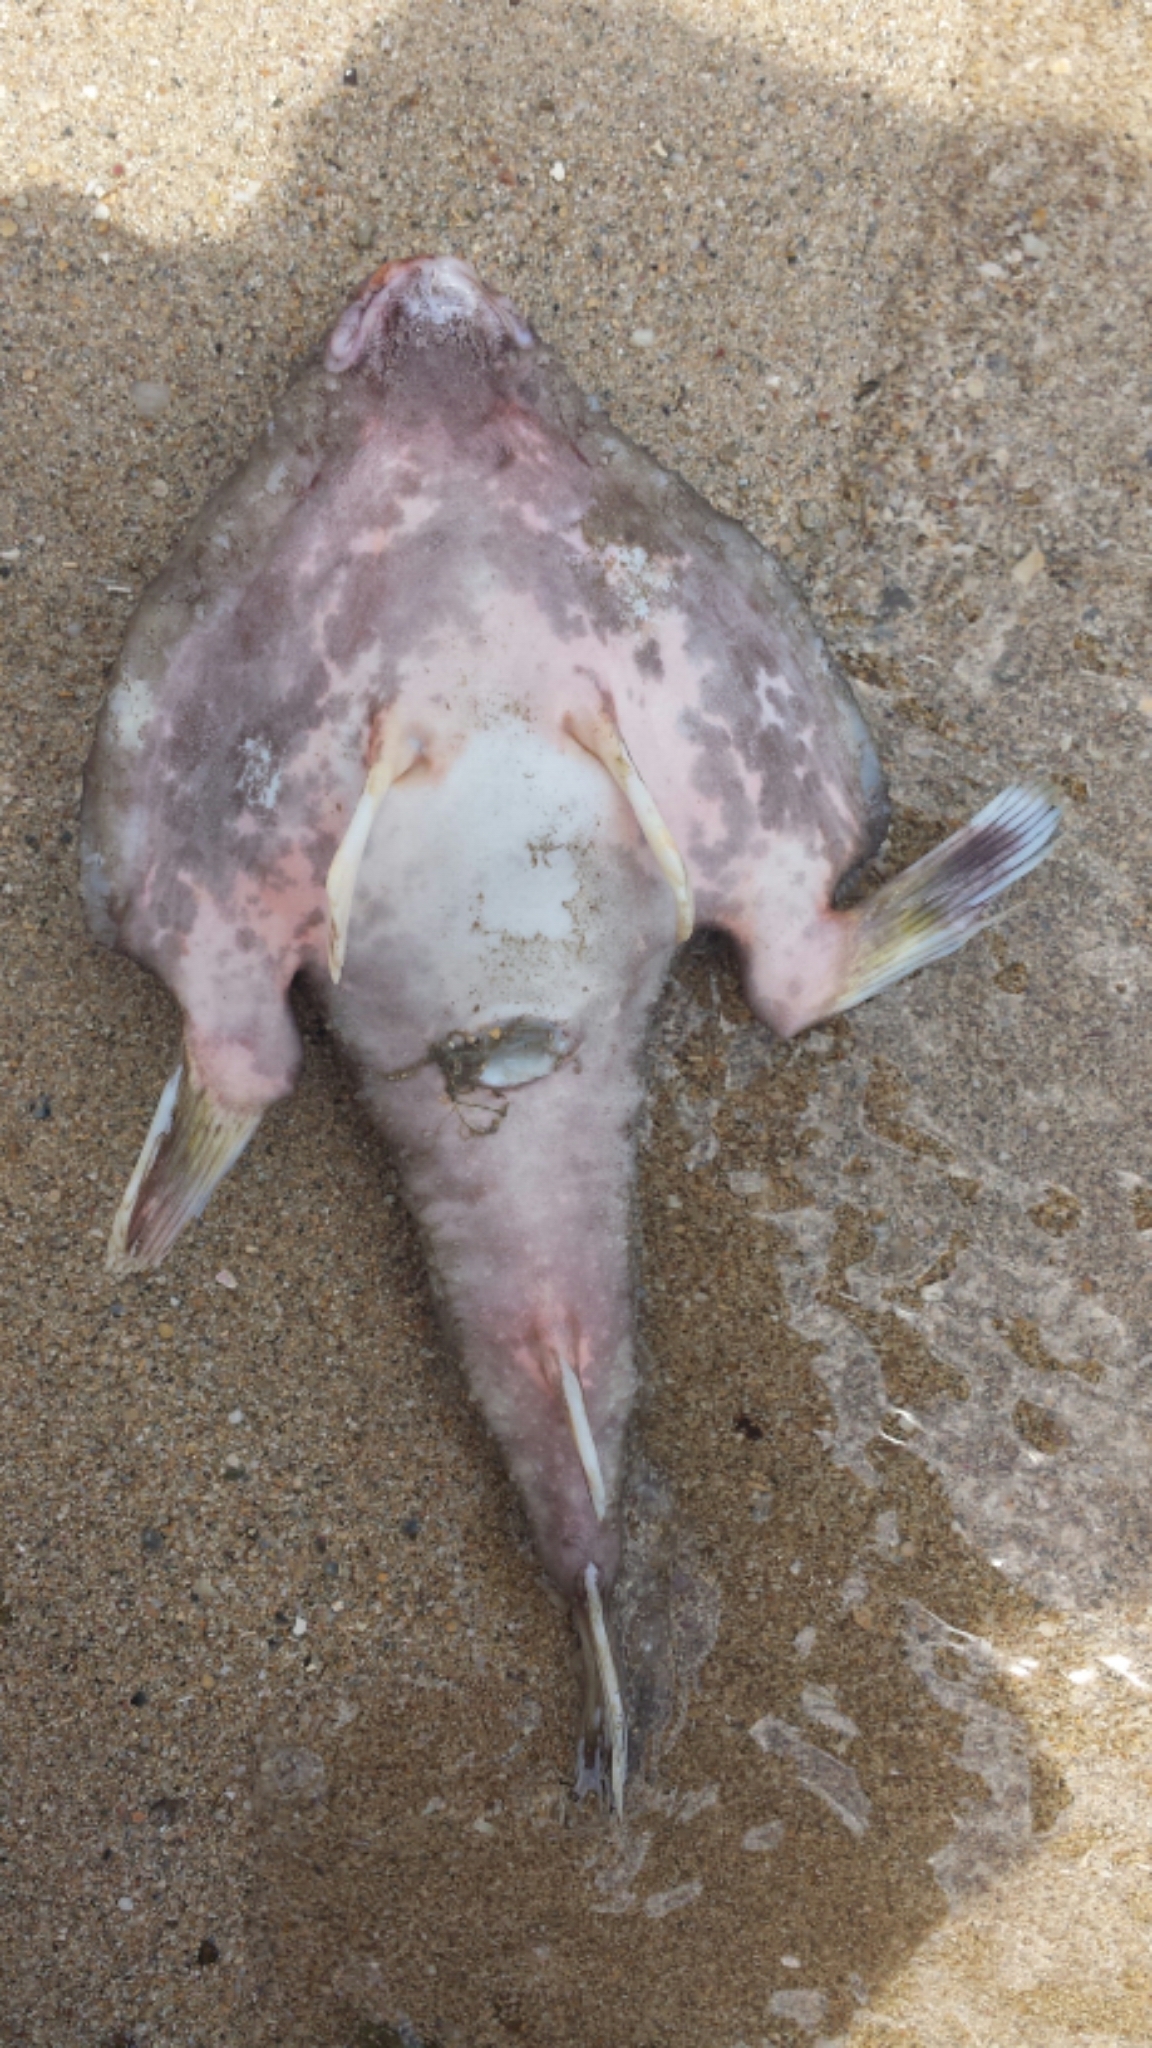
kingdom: Animalia
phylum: Chordata
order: Lophiiformes
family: Ogcocephalidae
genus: Ogcocephalus
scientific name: Ogcocephalus vespertilio
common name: Seadevil
